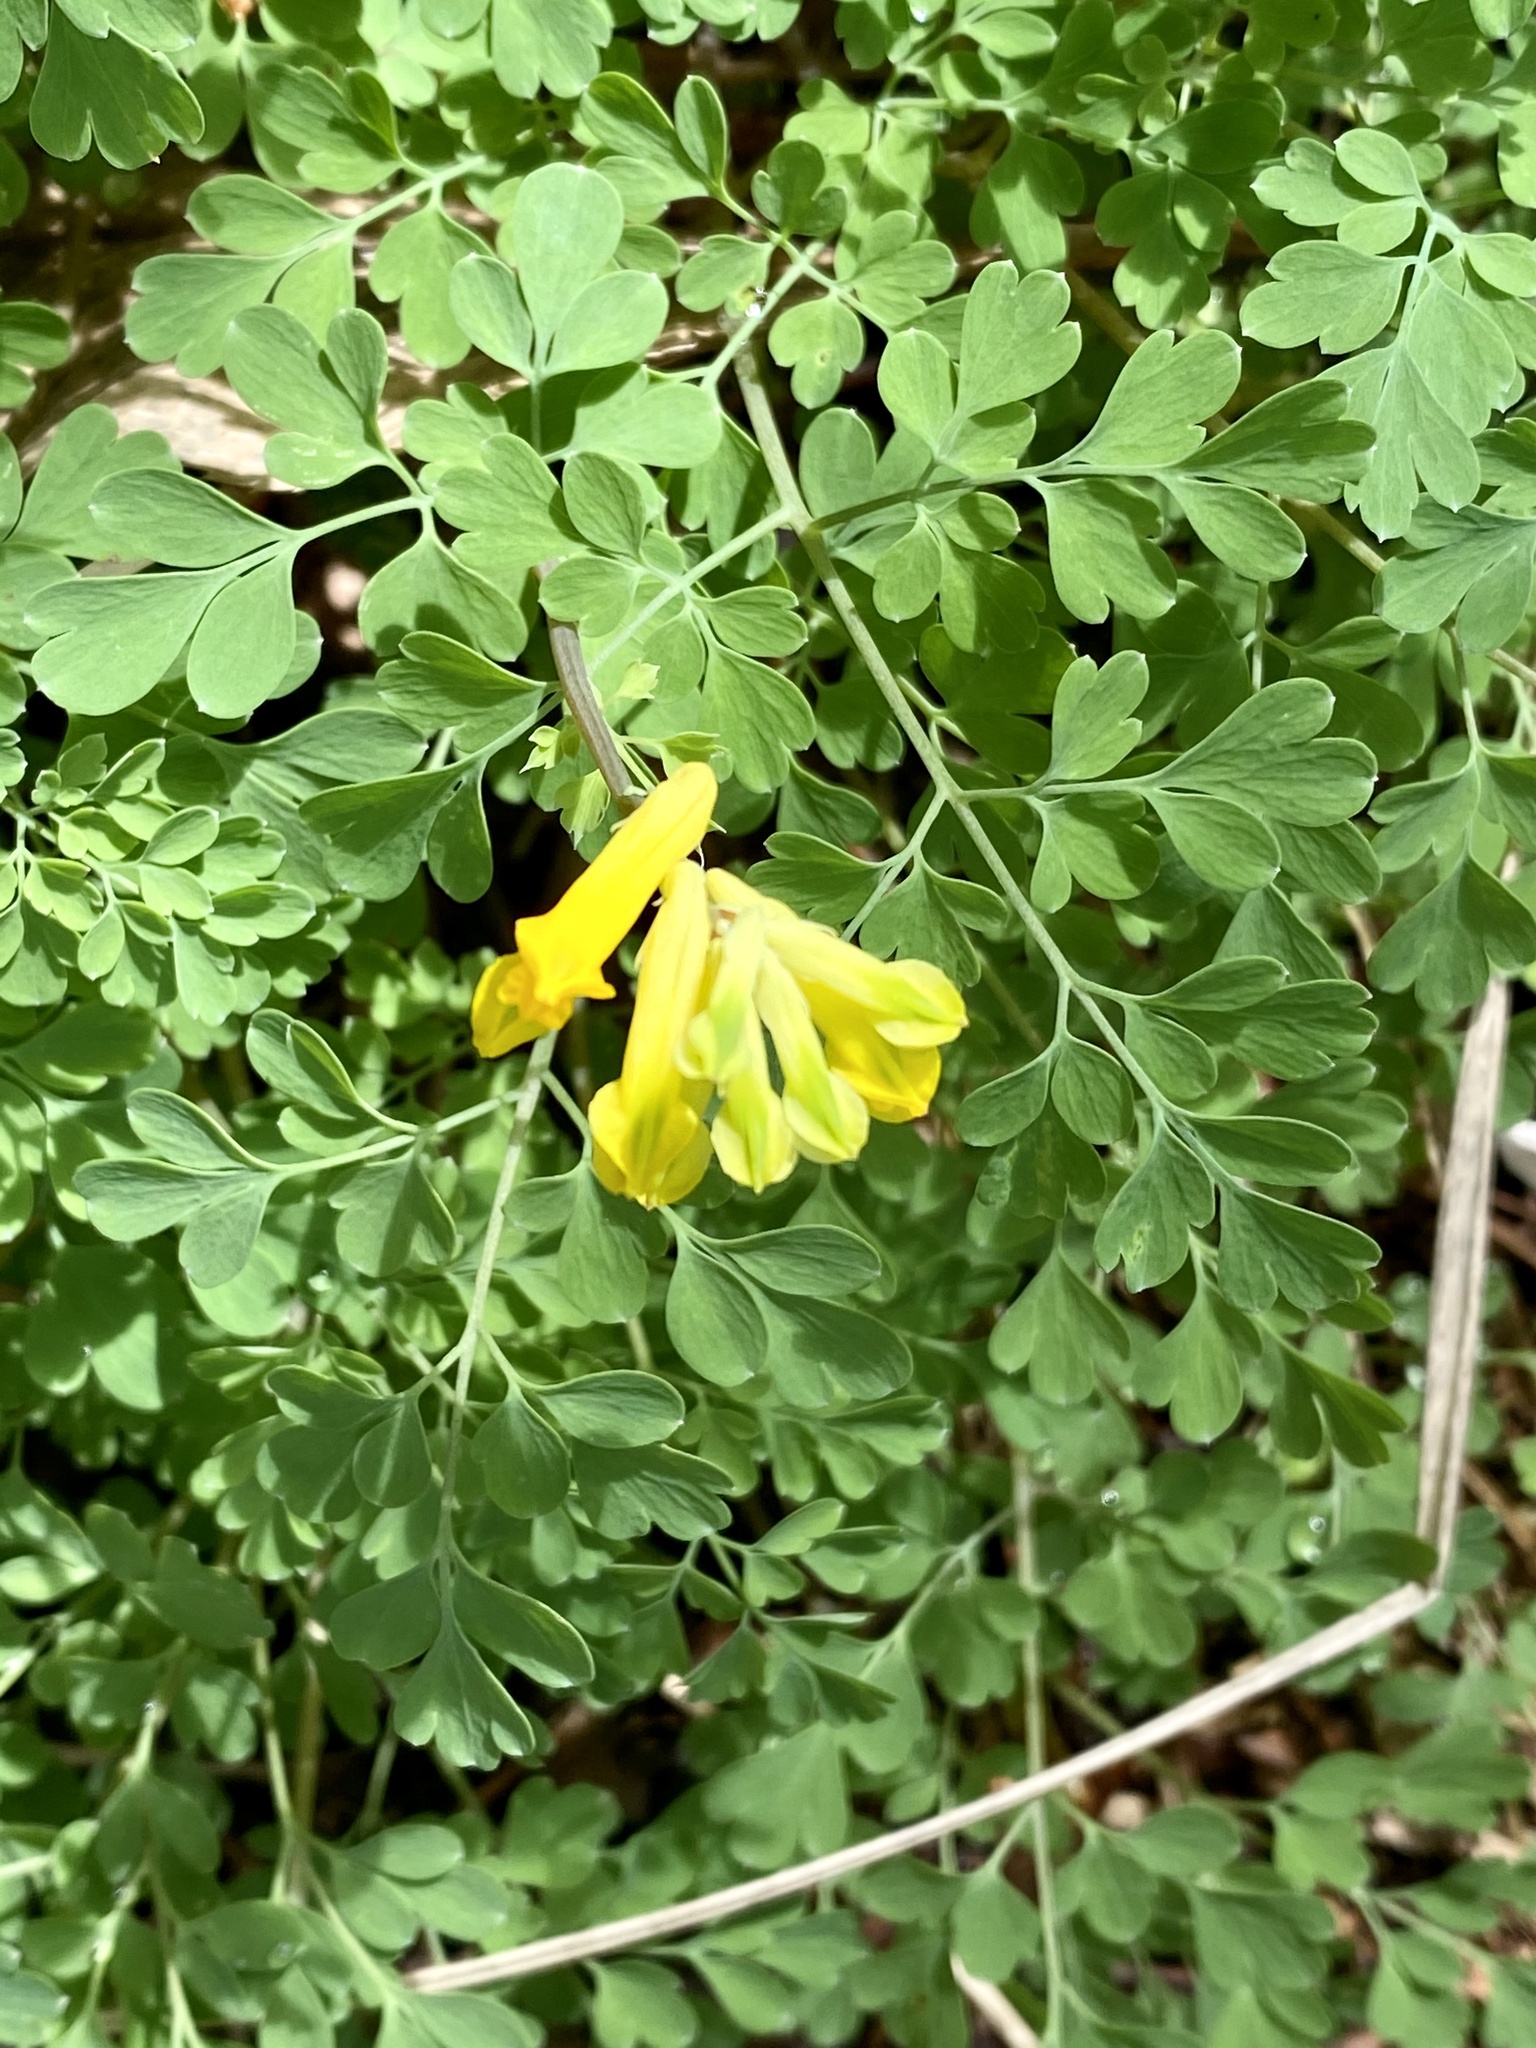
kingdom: Plantae
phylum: Tracheophyta
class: Magnoliopsida
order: Ranunculales
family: Papaveraceae
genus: Pseudofumaria
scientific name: Pseudofumaria lutea
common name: Yellow corydalis
